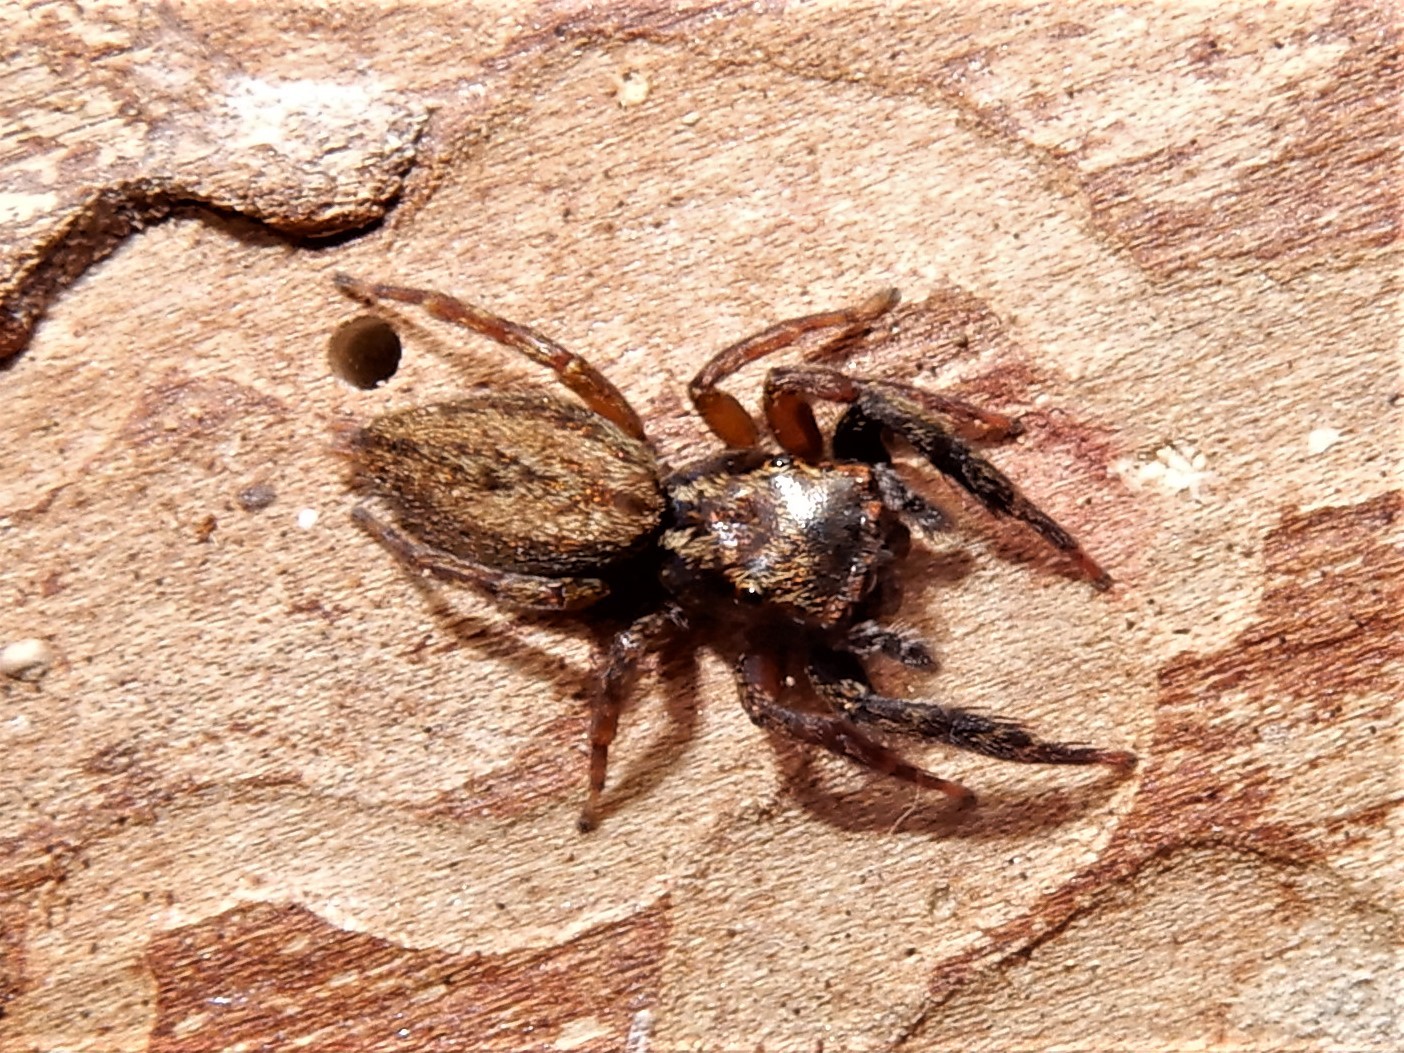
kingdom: Animalia
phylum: Arthropoda
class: Arachnida
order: Araneae
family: Salticidae
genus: Trite
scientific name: Trite auricoma
